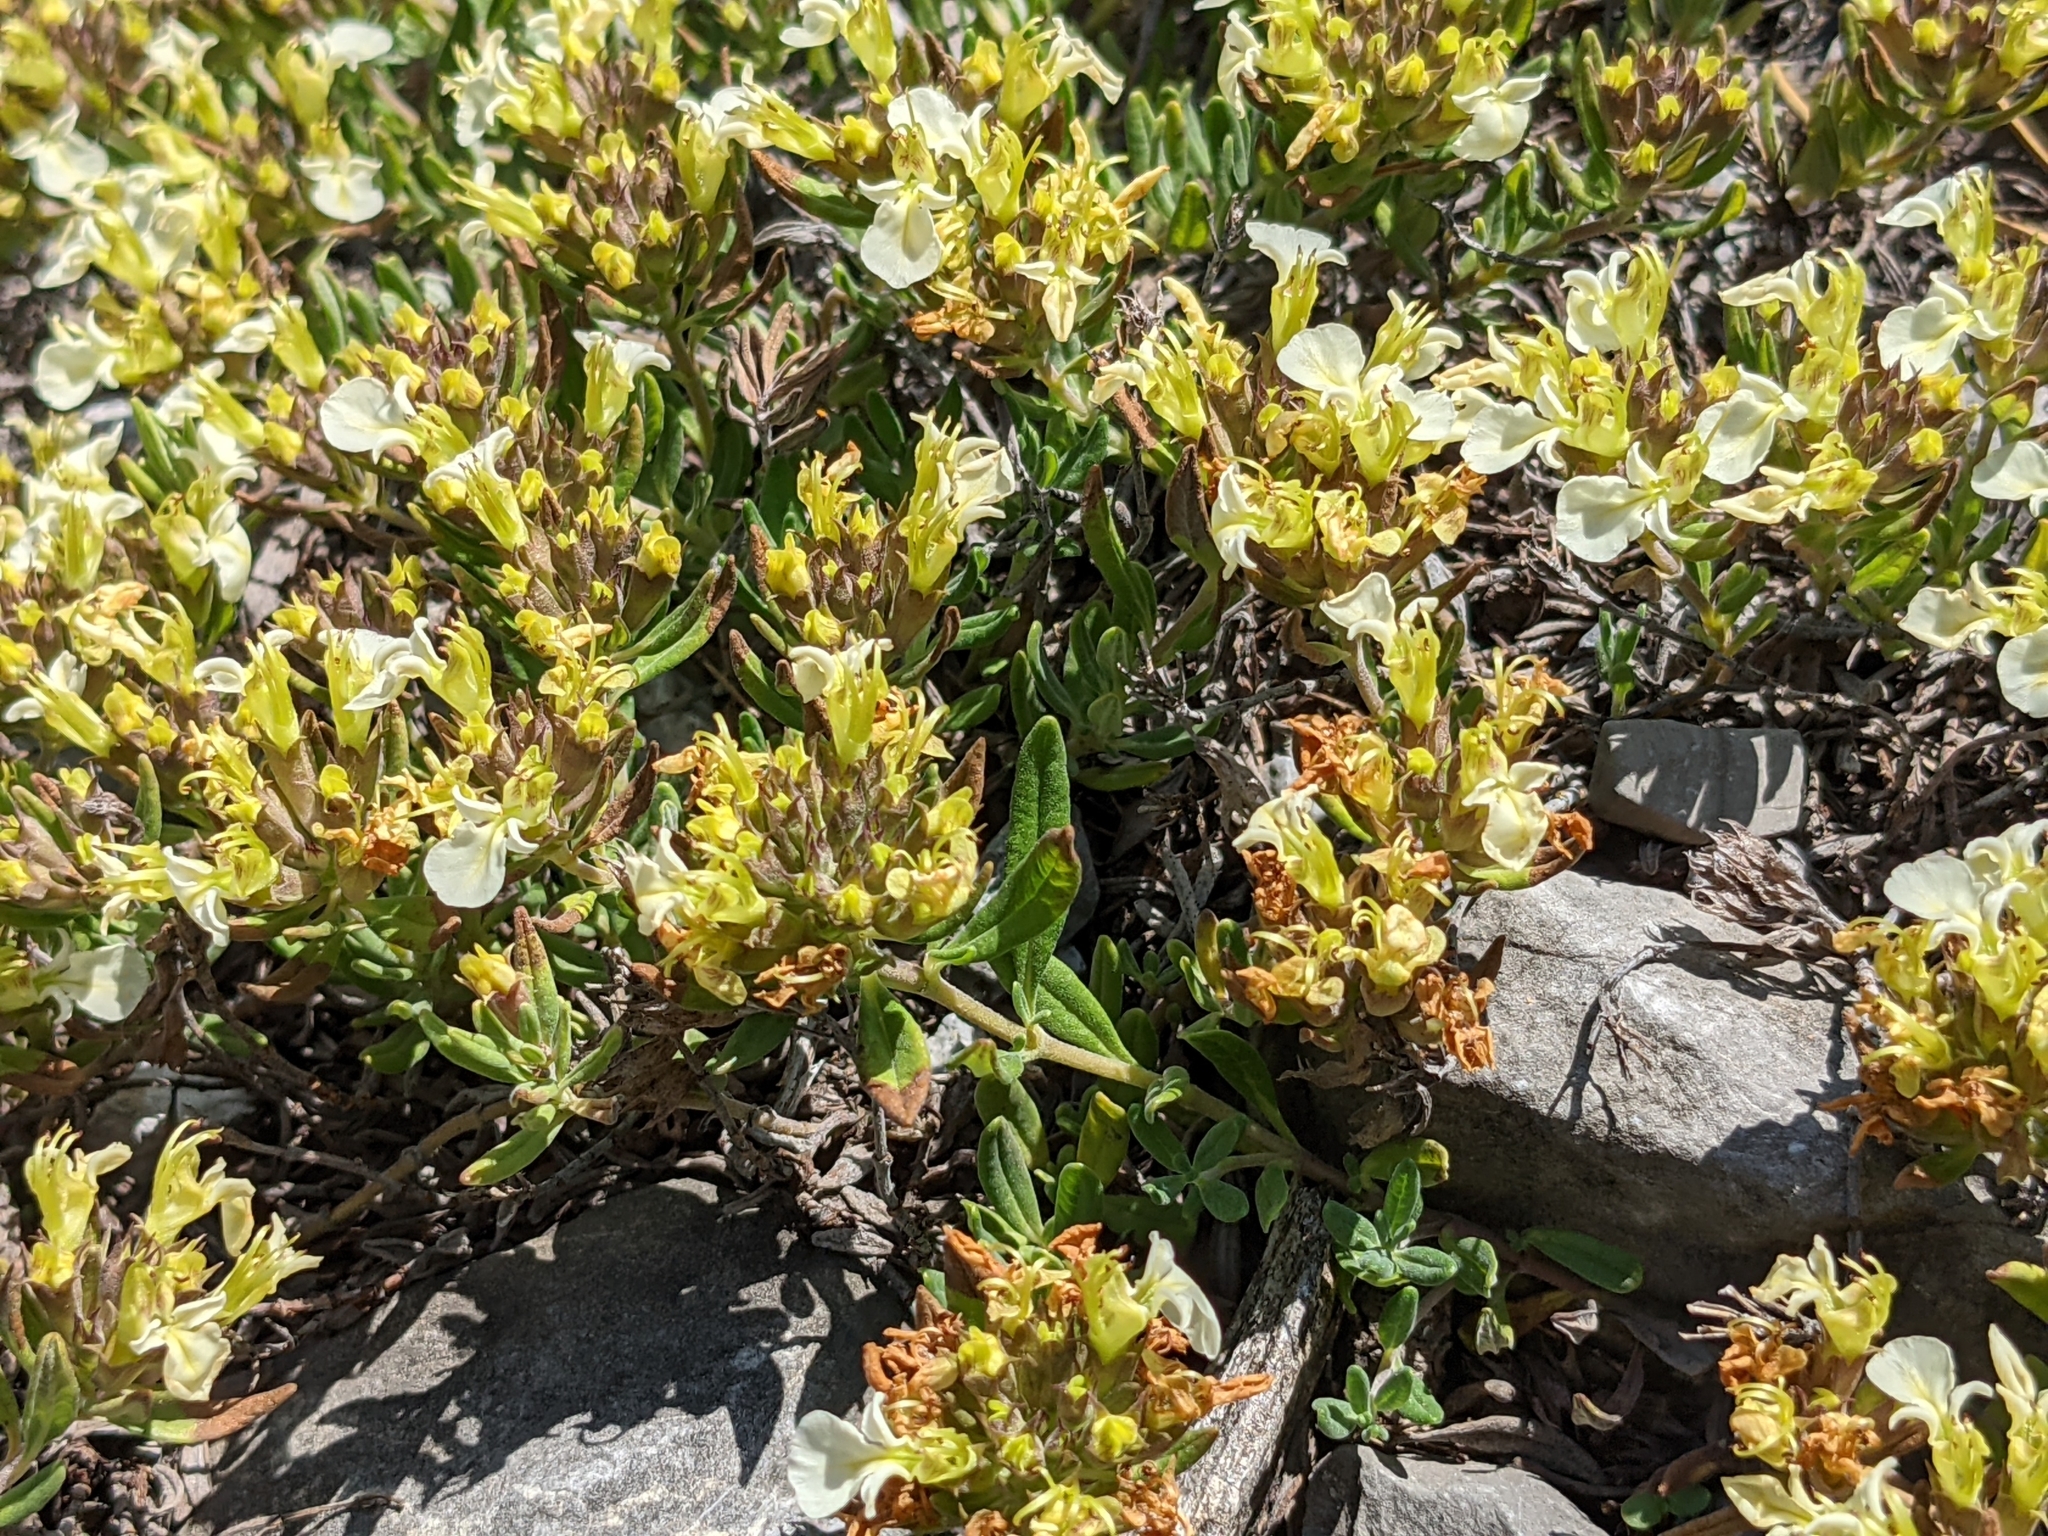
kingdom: Plantae
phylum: Tracheophyta
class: Magnoliopsida
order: Lamiales
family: Lamiaceae
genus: Teucrium
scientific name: Teucrium montanum
